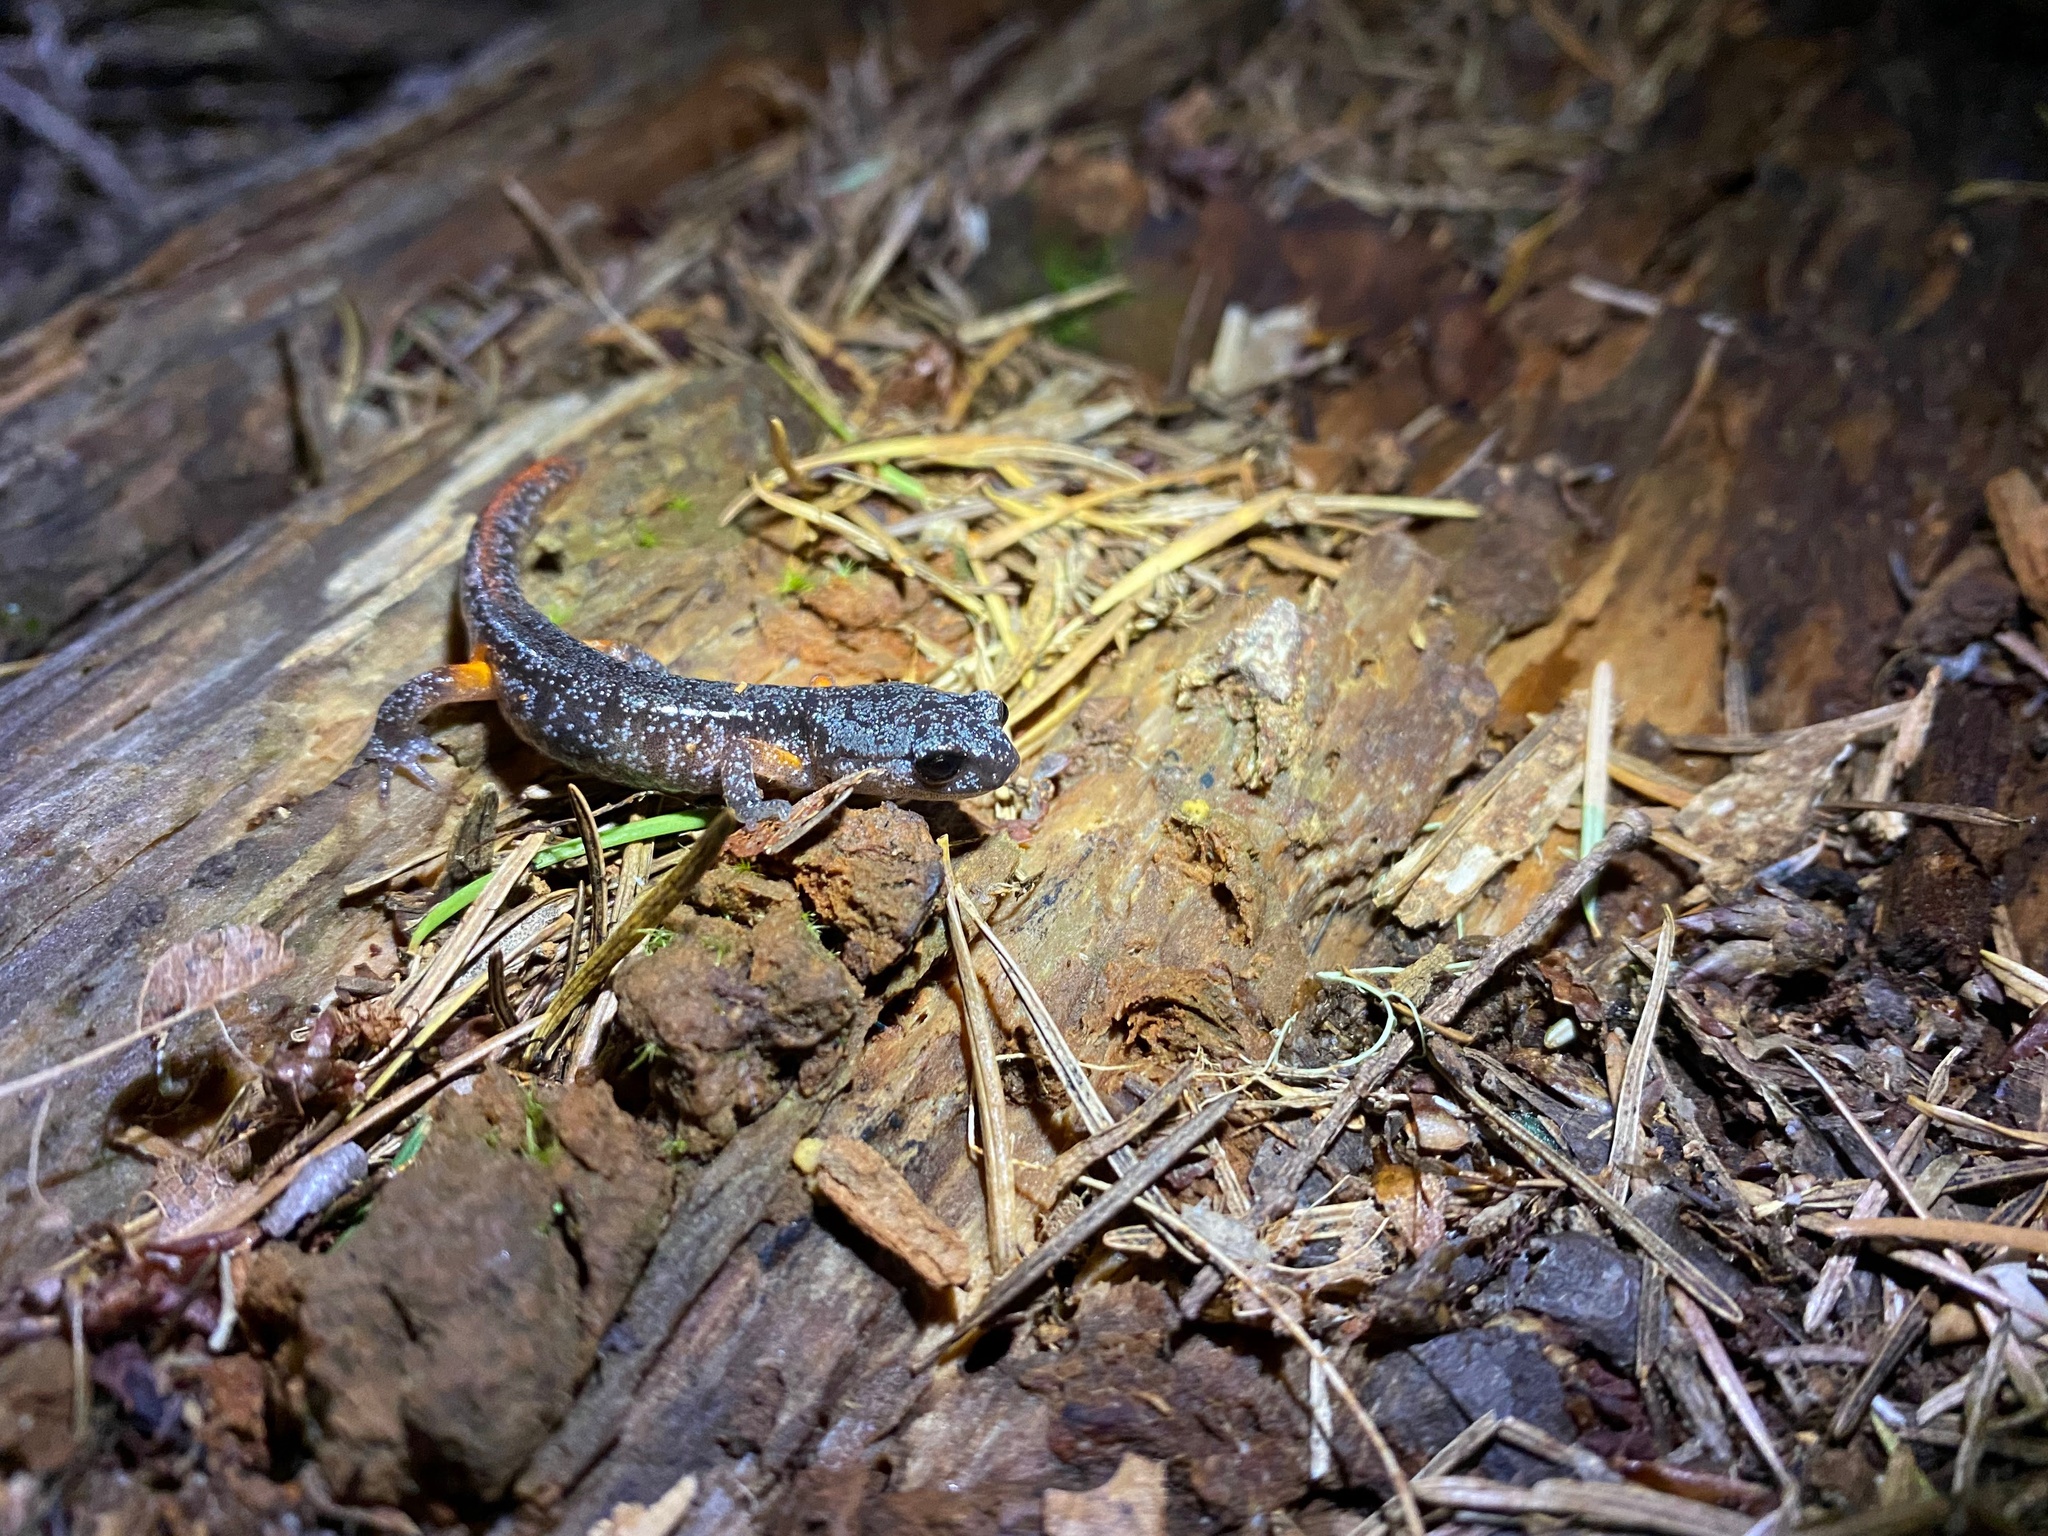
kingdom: Animalia
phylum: Chordata
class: Amphibia
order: Caudata
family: Plethodontidae
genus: Ensatina
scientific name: Ensatina eschscholtzii
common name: Ensatina
